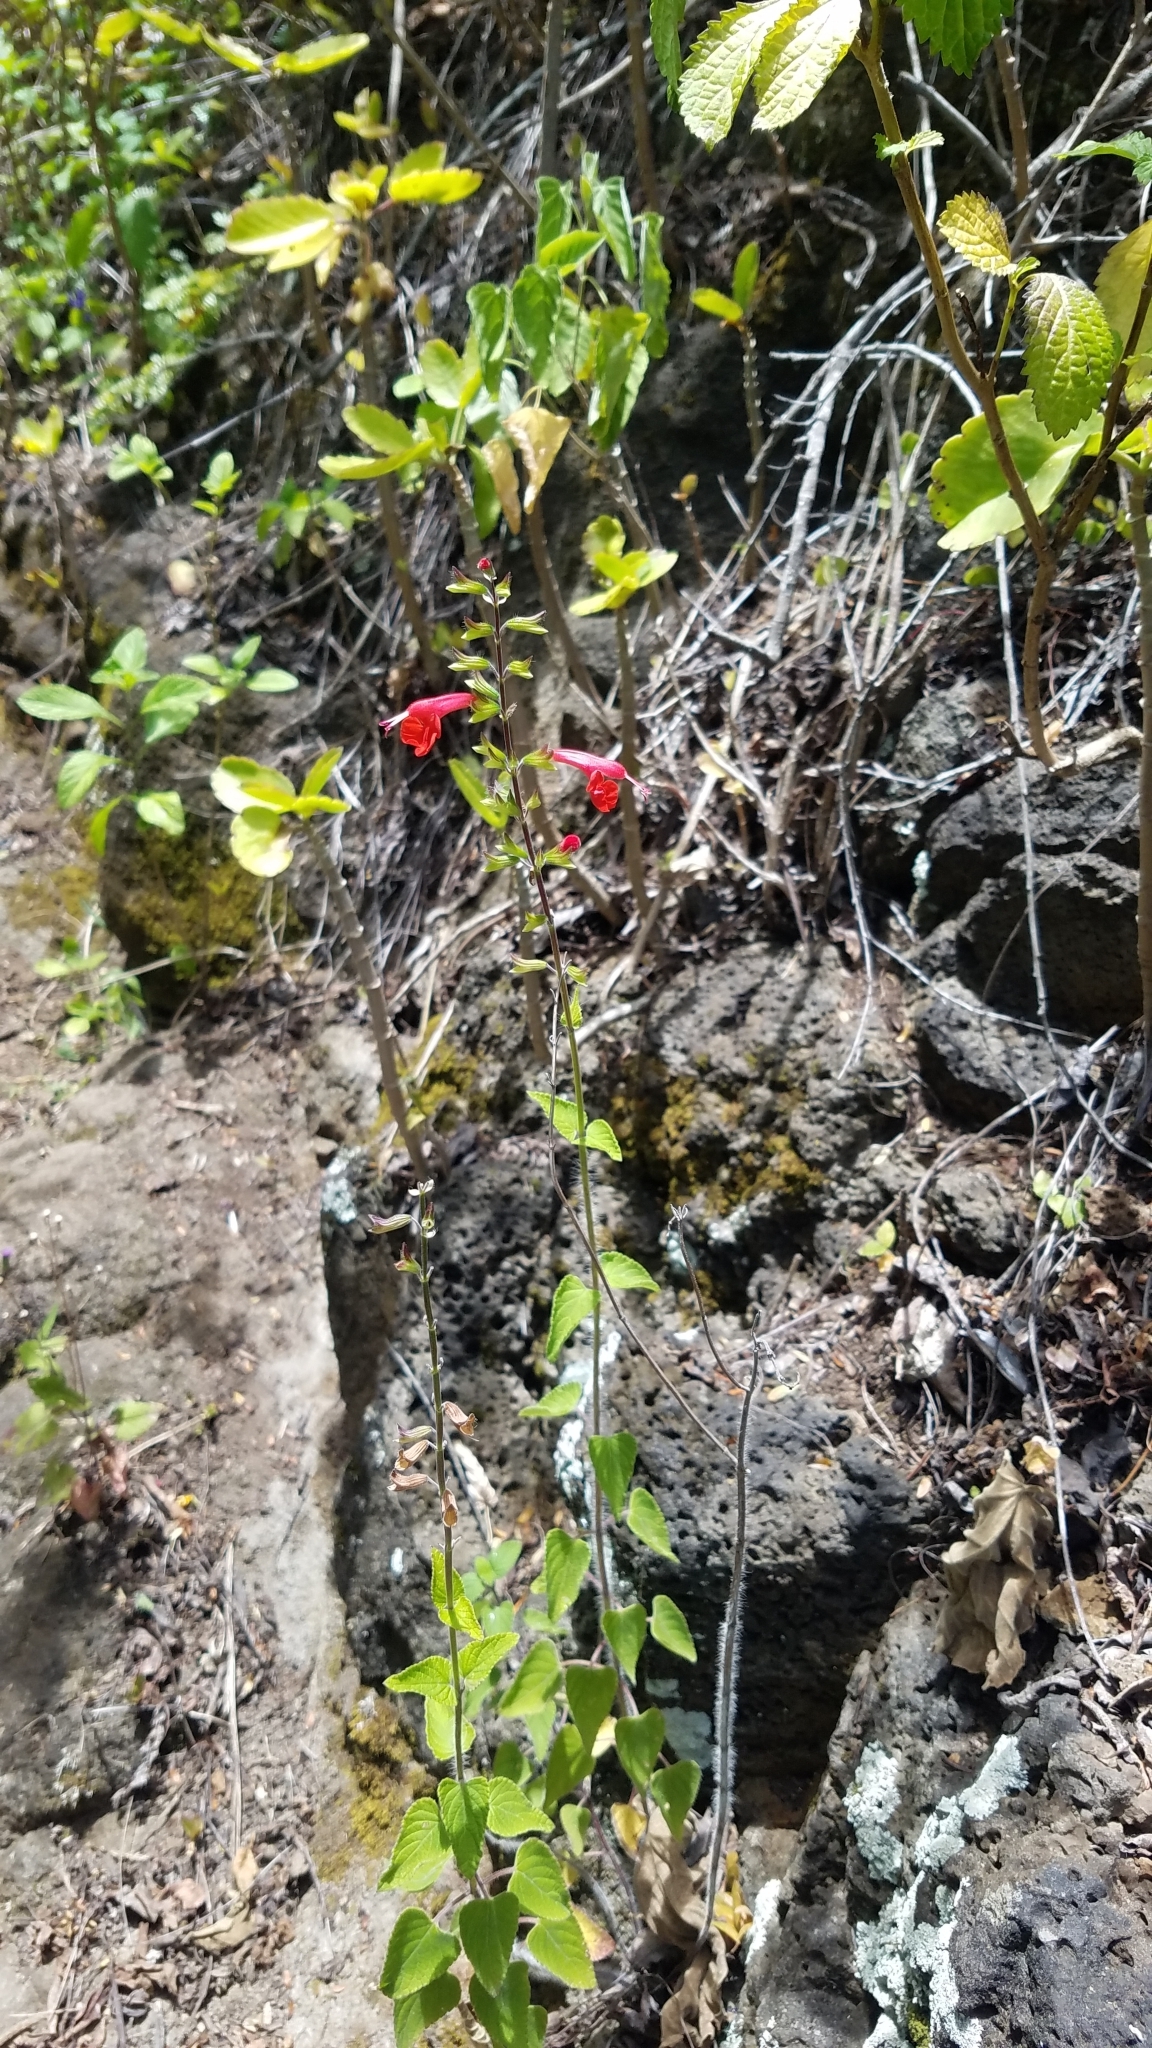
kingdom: Plantae
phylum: Tracheophyta
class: Magnoliopsida
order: Lamiales
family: Lamiaceae
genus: Salvia
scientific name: Salvia coccinea
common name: Blood sage
